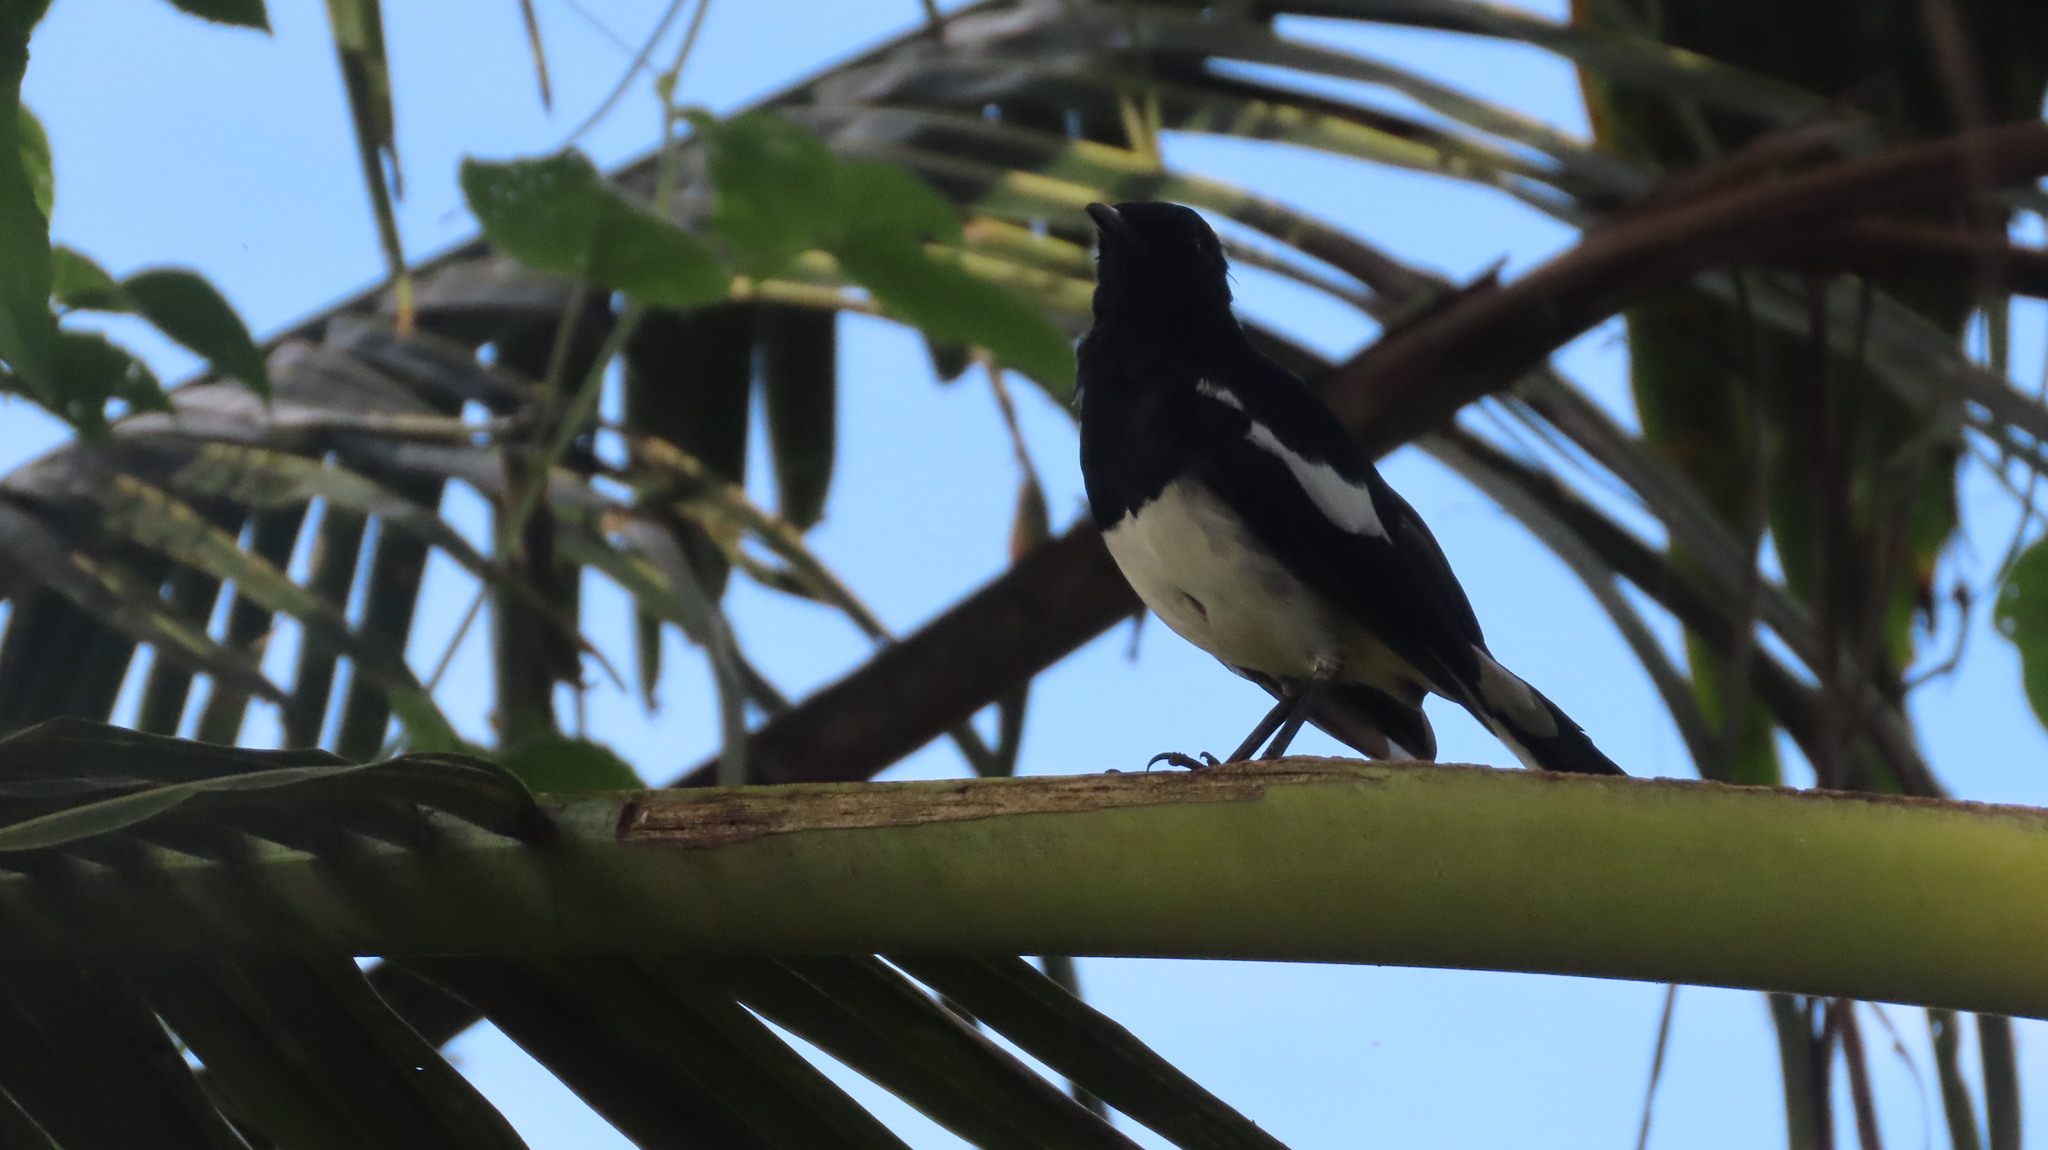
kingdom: Animalia
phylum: Chordata
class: Aves
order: Passeriformes
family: Muscicapidae
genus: Copsychus
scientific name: Copsychus saularis
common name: Oriental magpie-robin
